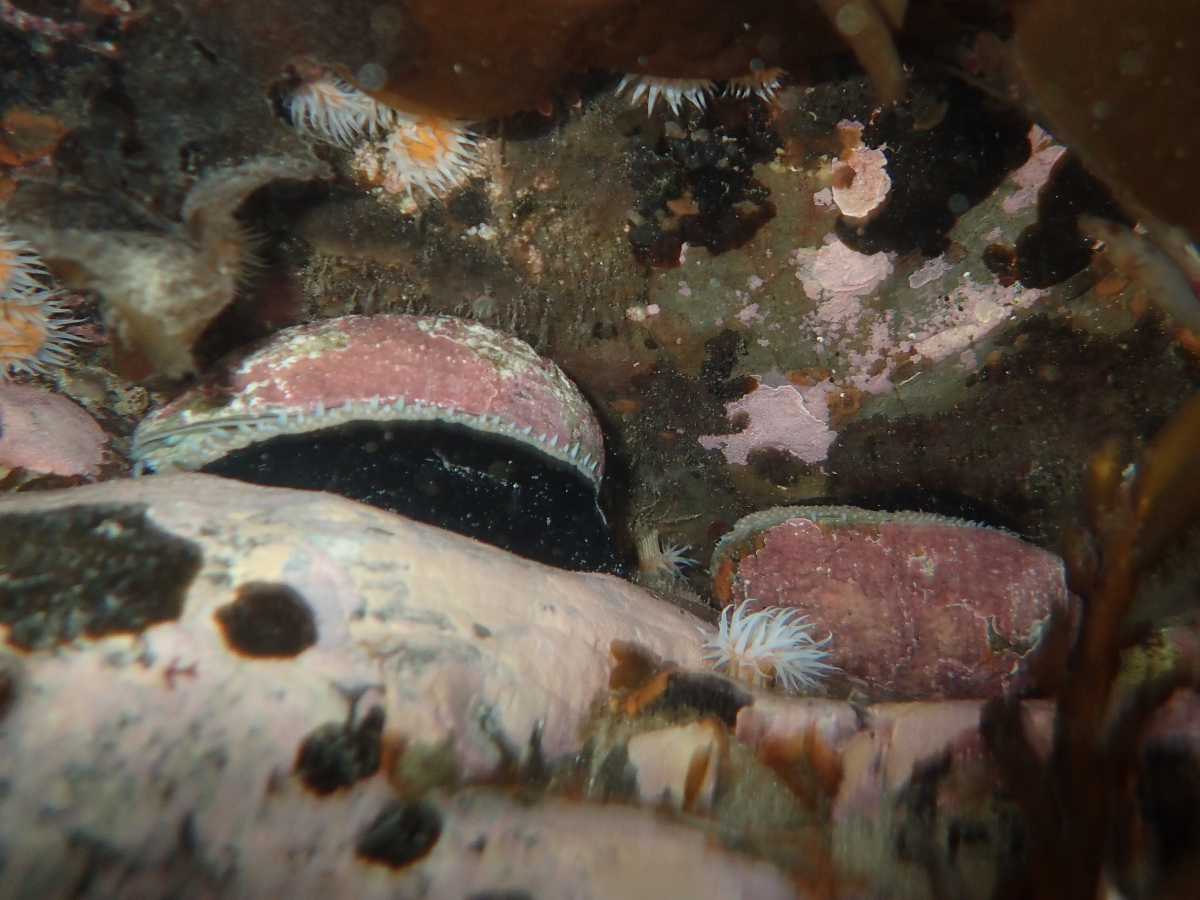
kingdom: Animalia
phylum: Mollusca
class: Gastropoda
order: Lepetellida
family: Haliotidae
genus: Haliotis
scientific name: Haliotis australis
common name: Silver abalone
